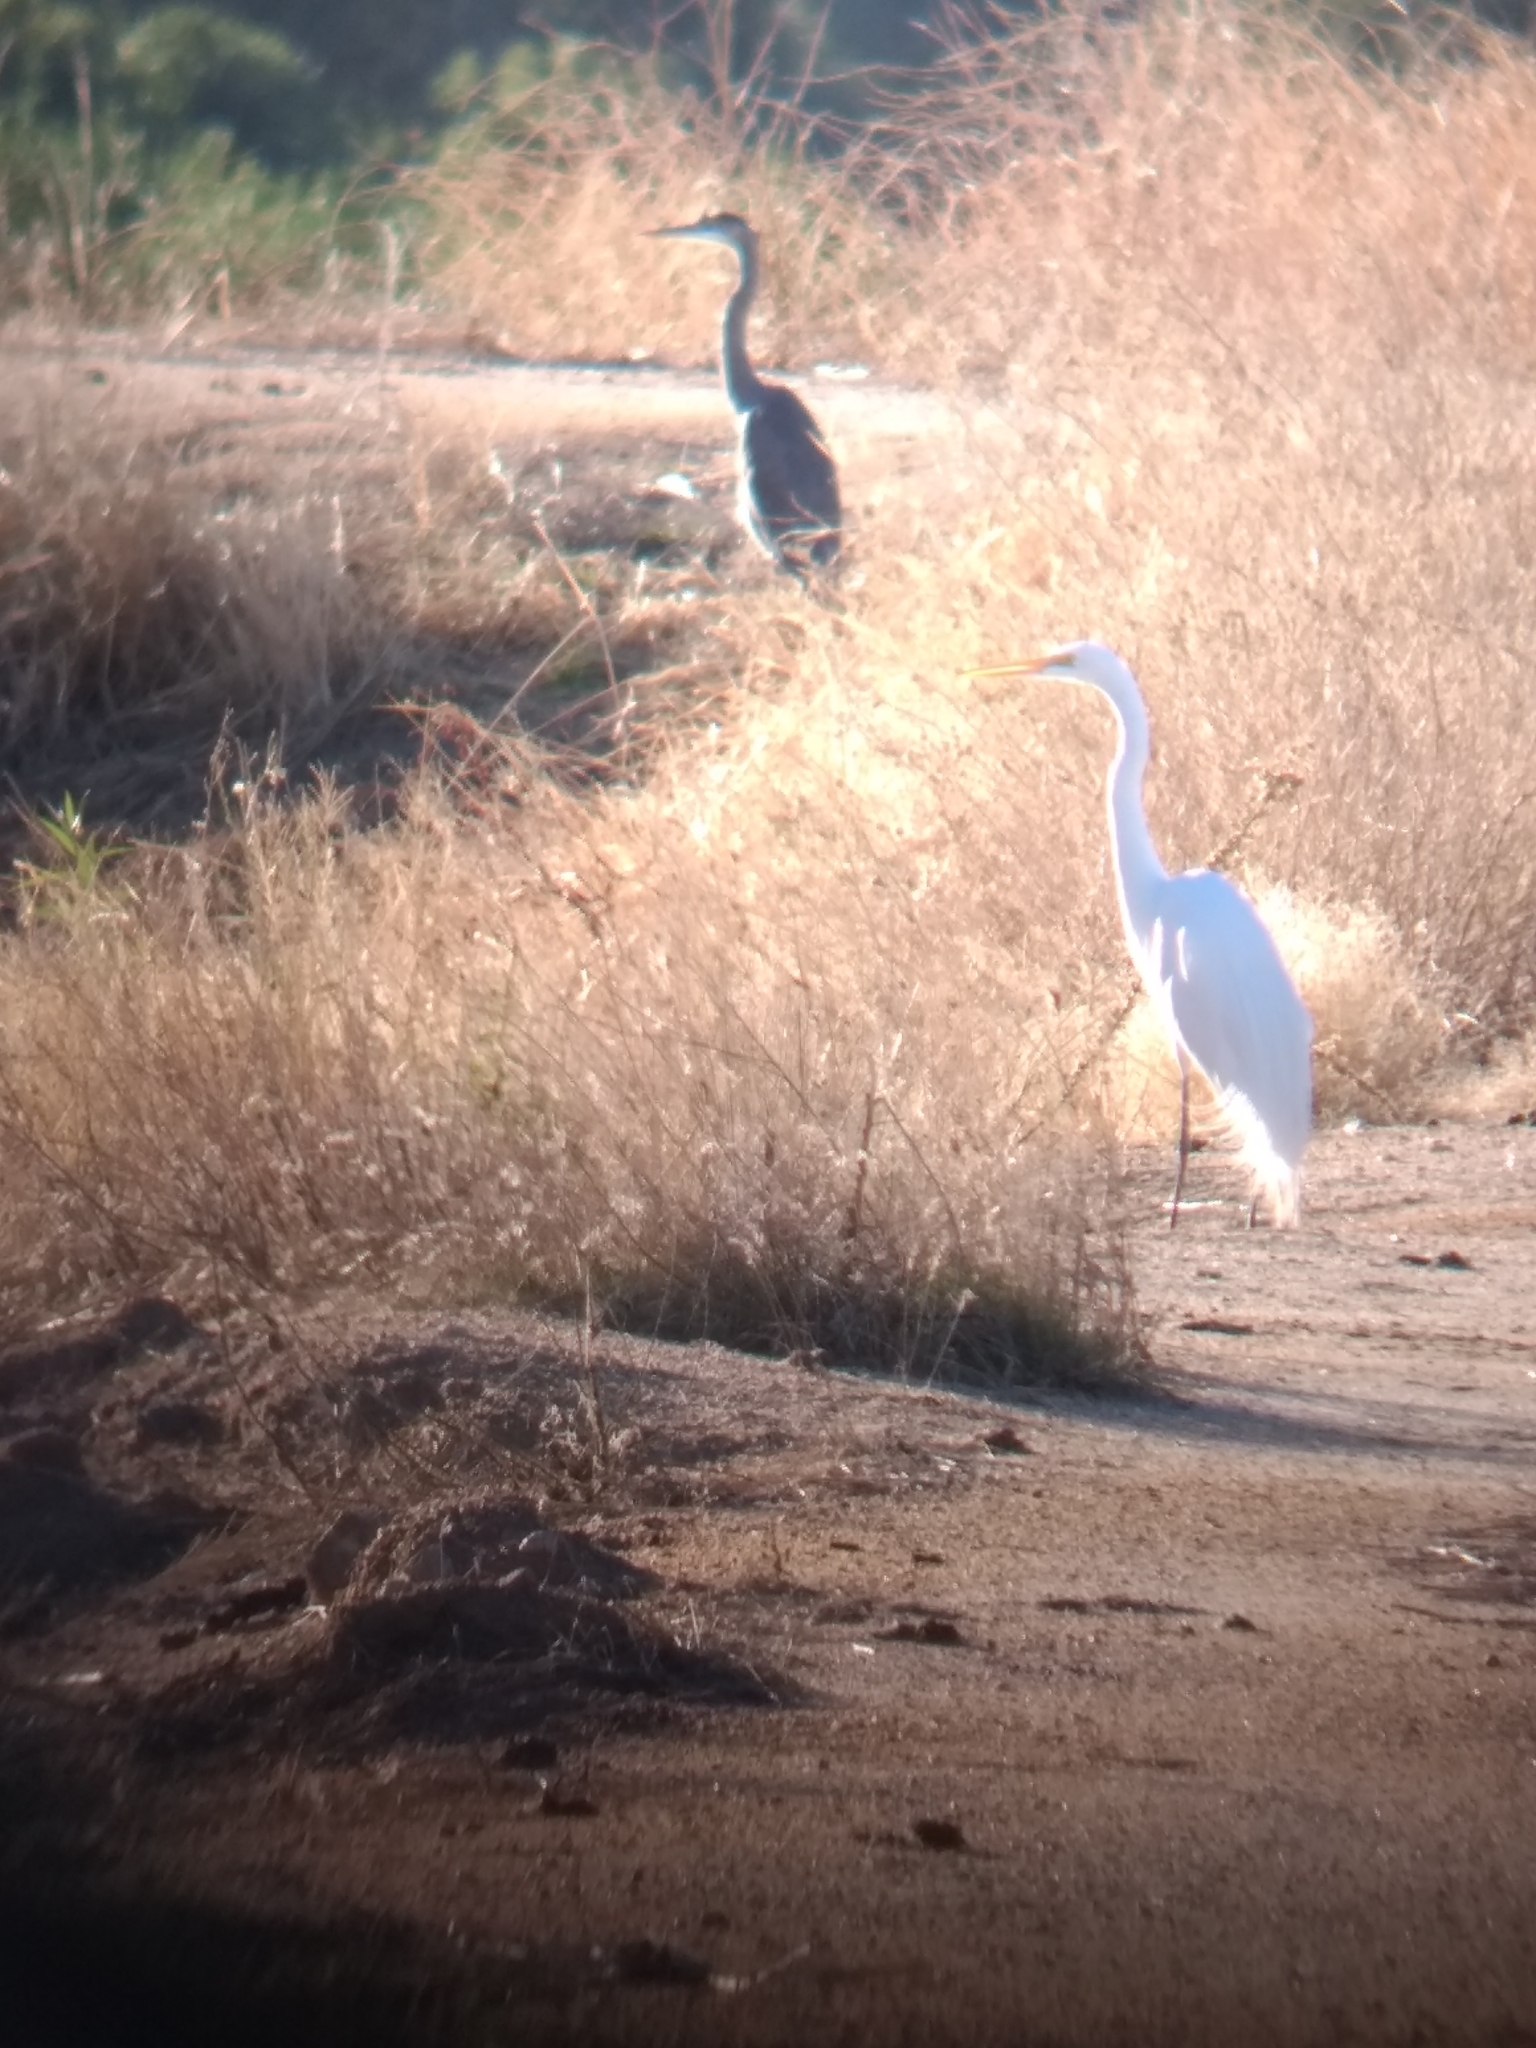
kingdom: Animalia
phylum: Chordata
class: Aves
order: Pelecaniformes
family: Ardeidae
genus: Ardea
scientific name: Ardea herodias
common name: Great blue heron
